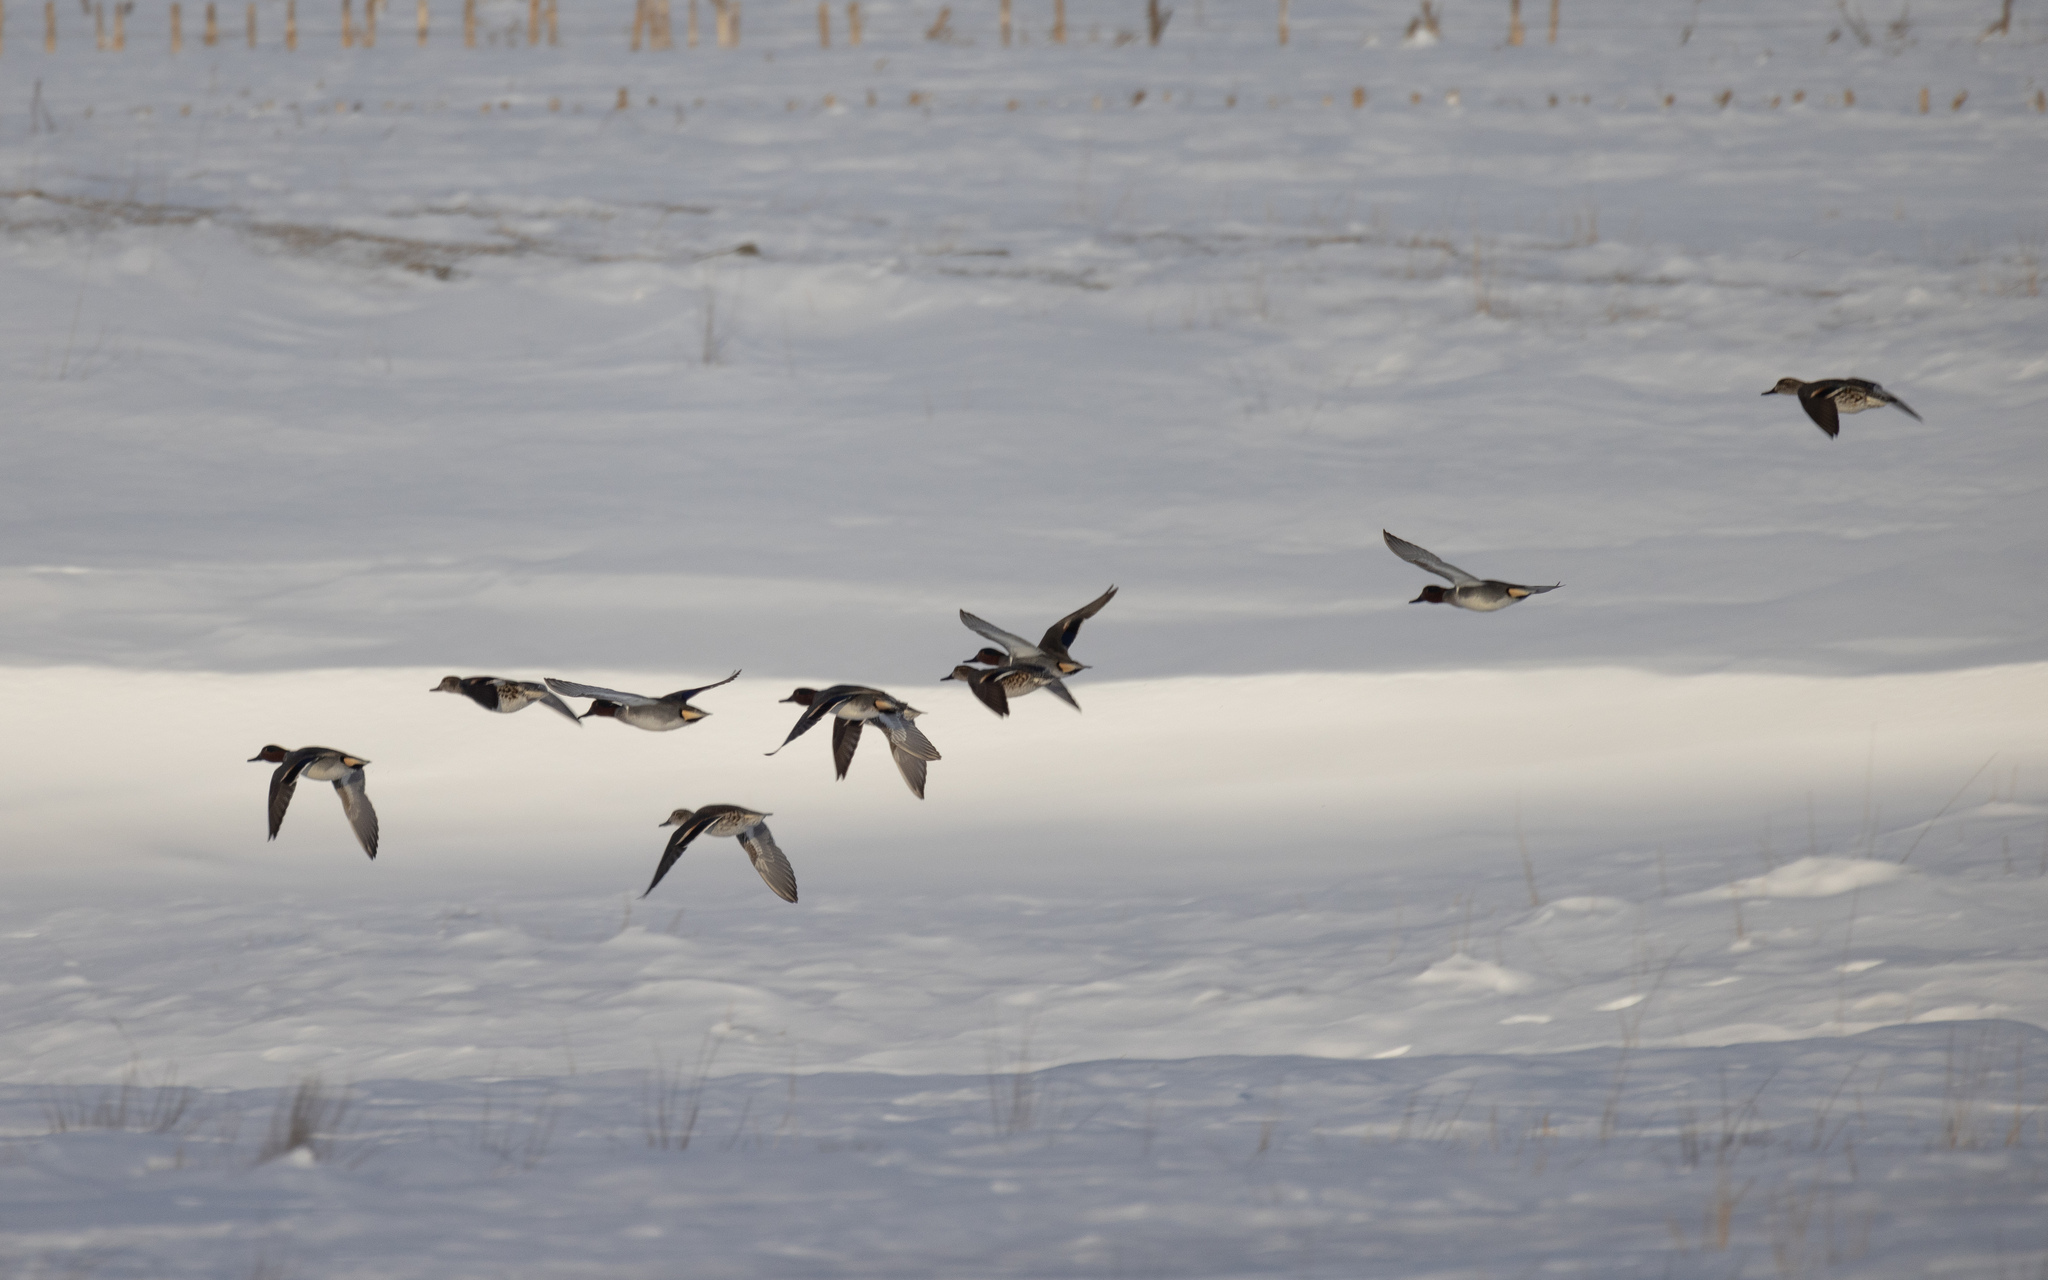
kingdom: Animalia
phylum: Chordata
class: Aves
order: Anseriformes
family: Anatidae
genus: Anas
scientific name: Anas crecca
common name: Eurasian teal
